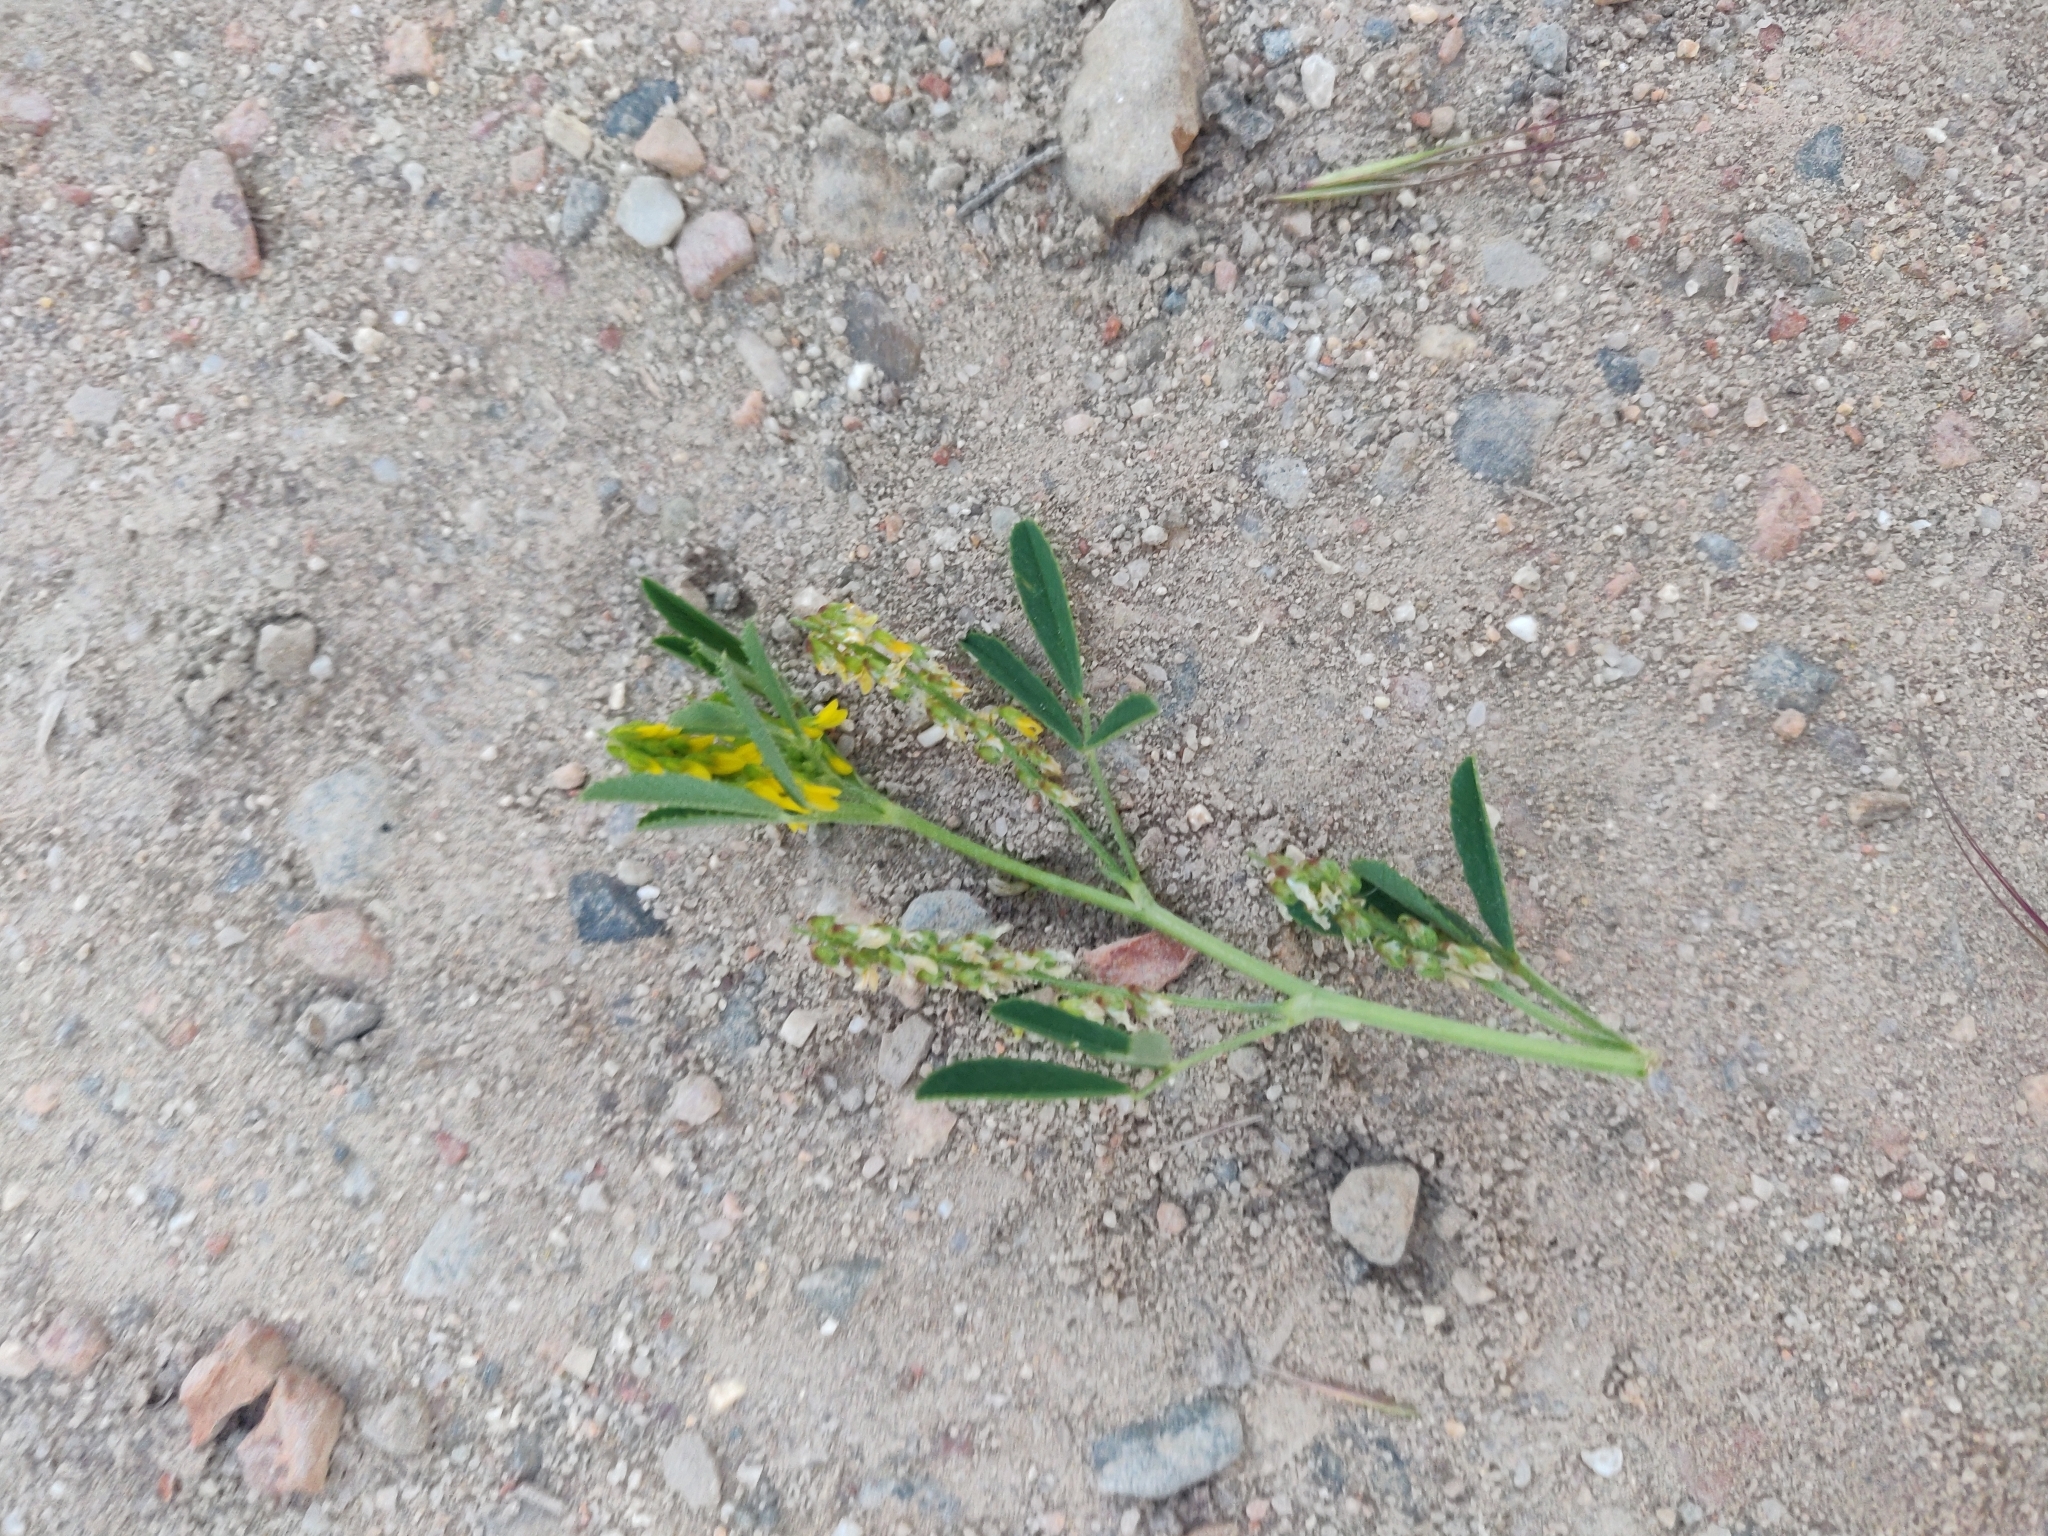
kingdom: Plantae
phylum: Tracheophyta
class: Magnoliopsida
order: Fabales
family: Fabaceae
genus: Melilotus
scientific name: Melilotus indicus
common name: Small melilot
